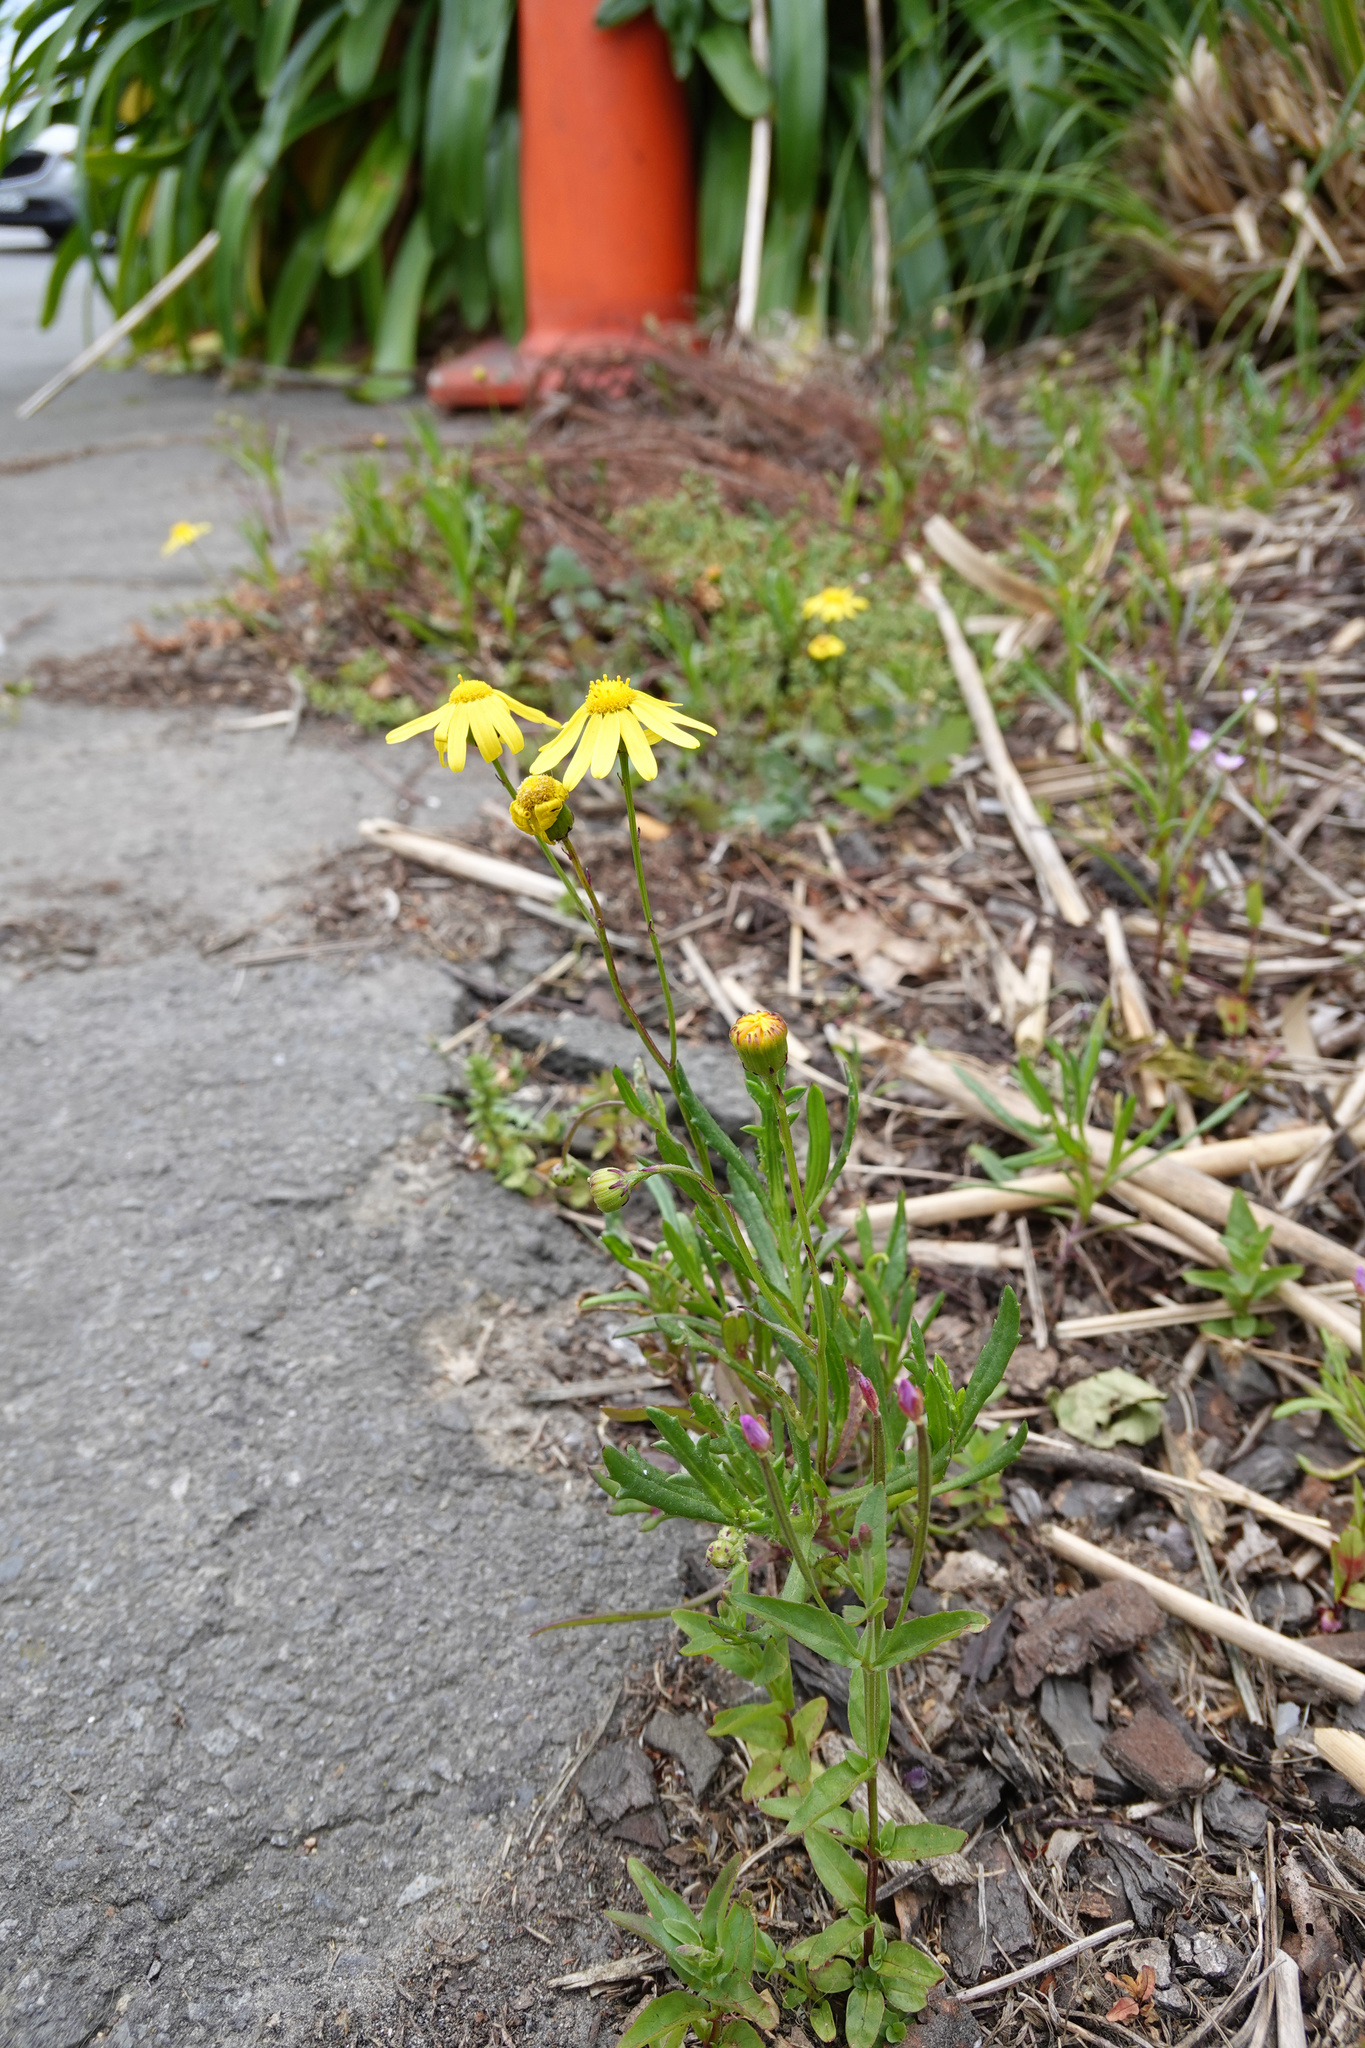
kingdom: Plantae
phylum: Tracheophyta
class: Magnoliopsida
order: Asterales
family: Asteraceae
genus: Senecio
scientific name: Senecio skirrhodon
